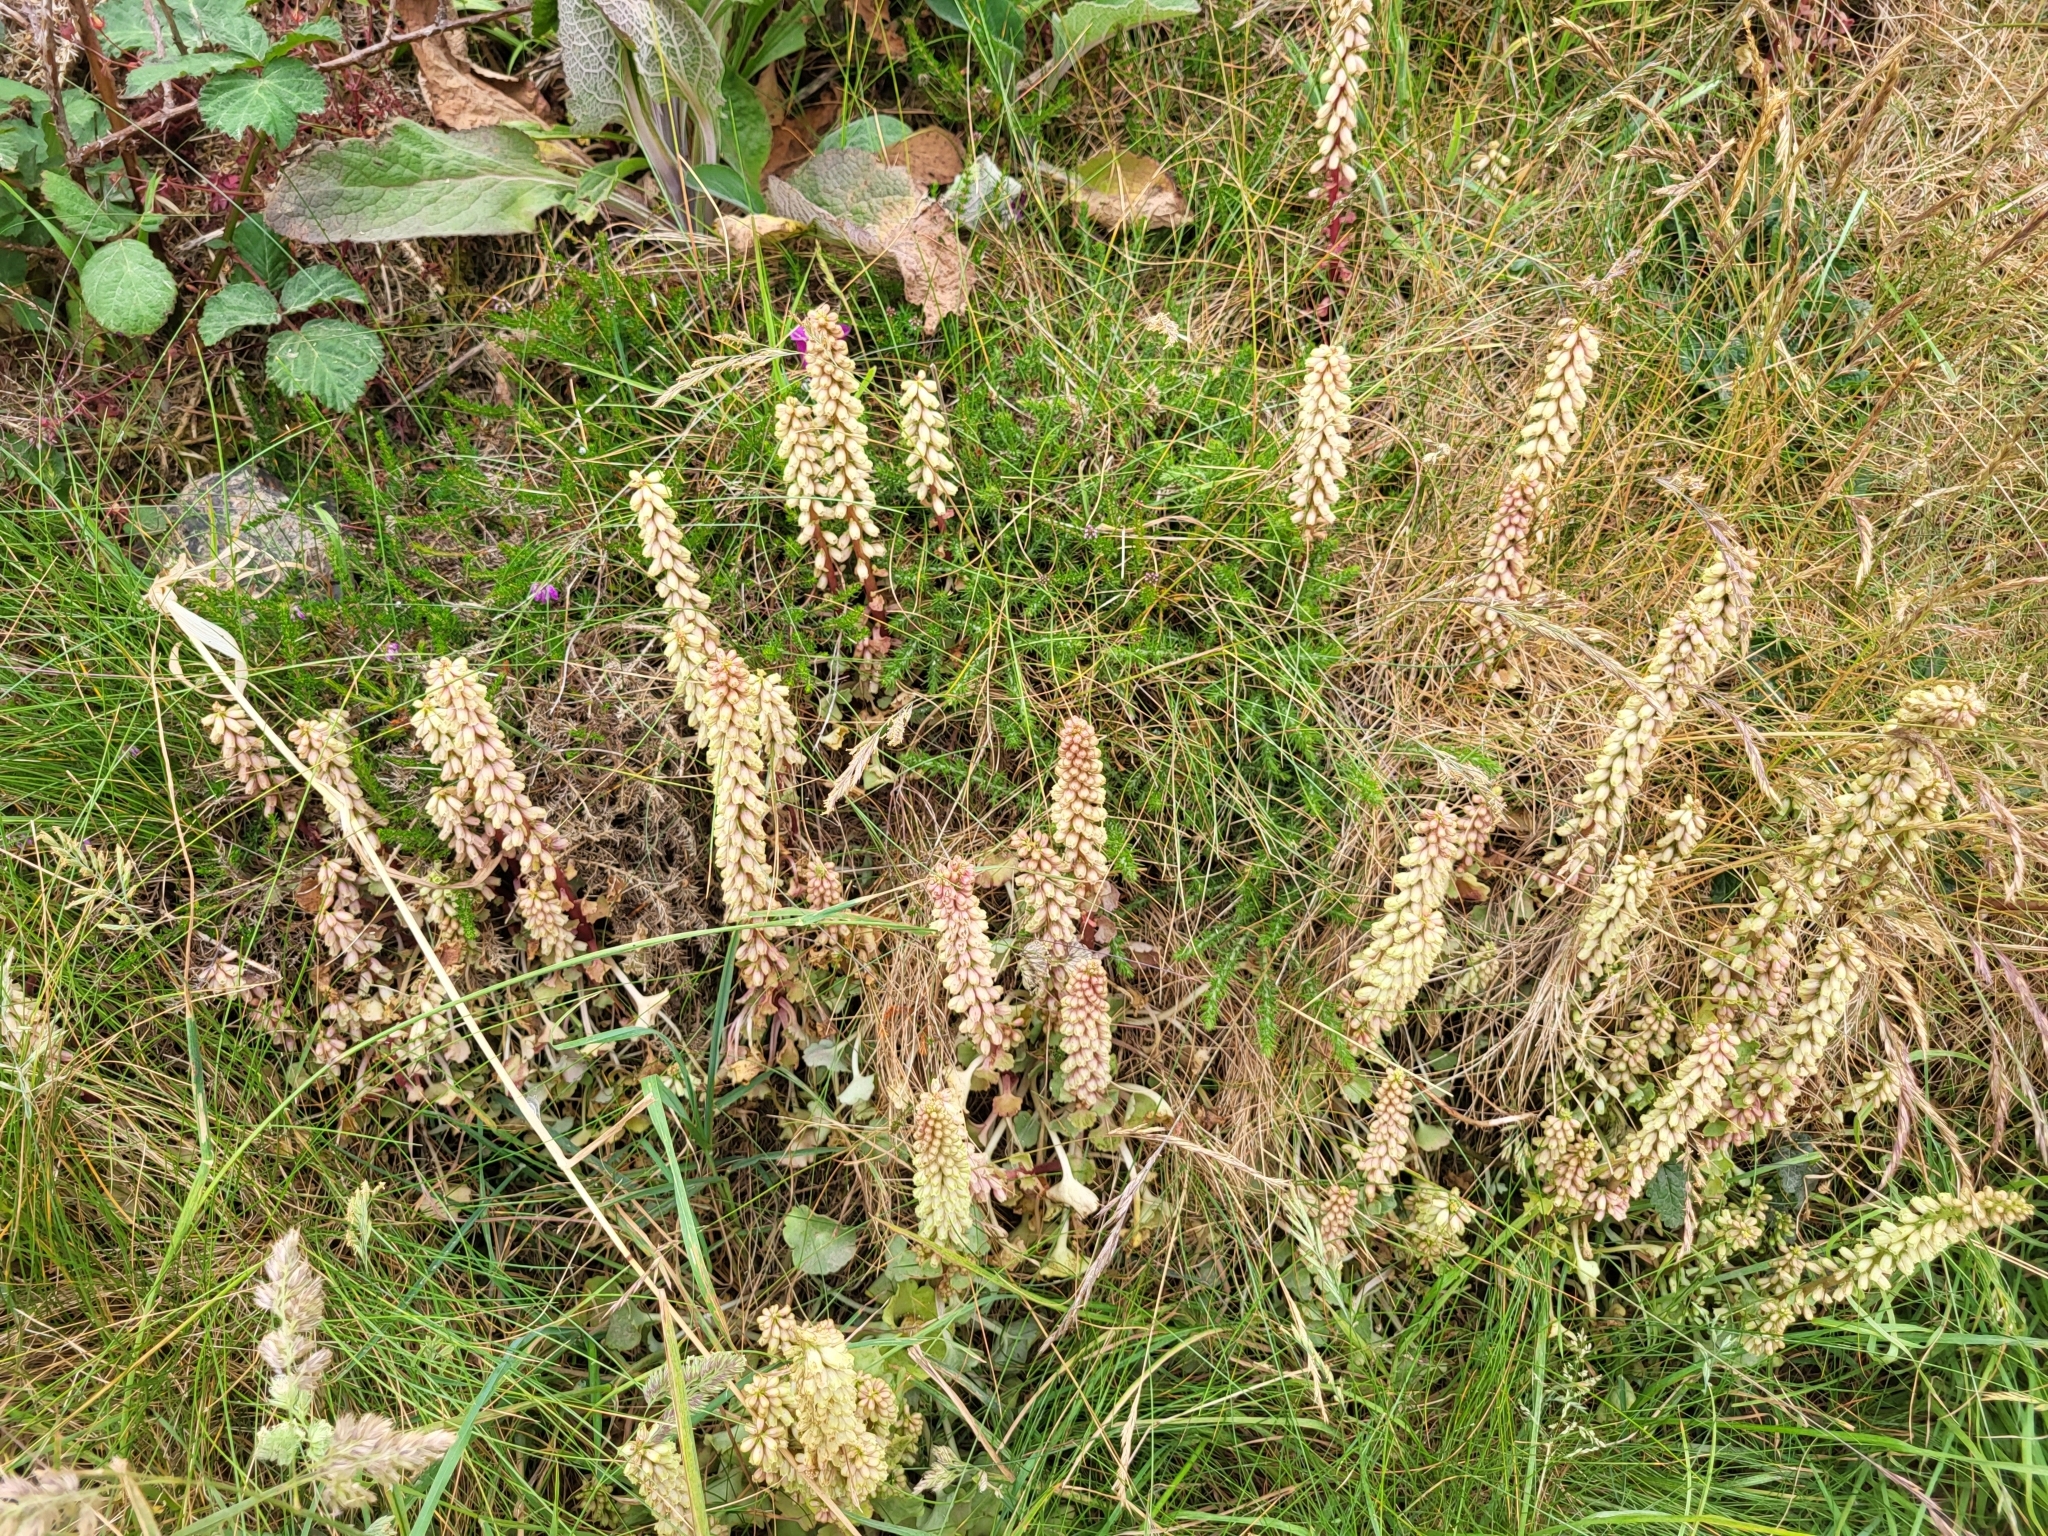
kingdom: Plantae
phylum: Tracheophyta
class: Magnoliopsida
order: Saxifragales
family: Crassulaceae
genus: Umbilicus
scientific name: Umbilicus rupestris
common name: Navelwort
